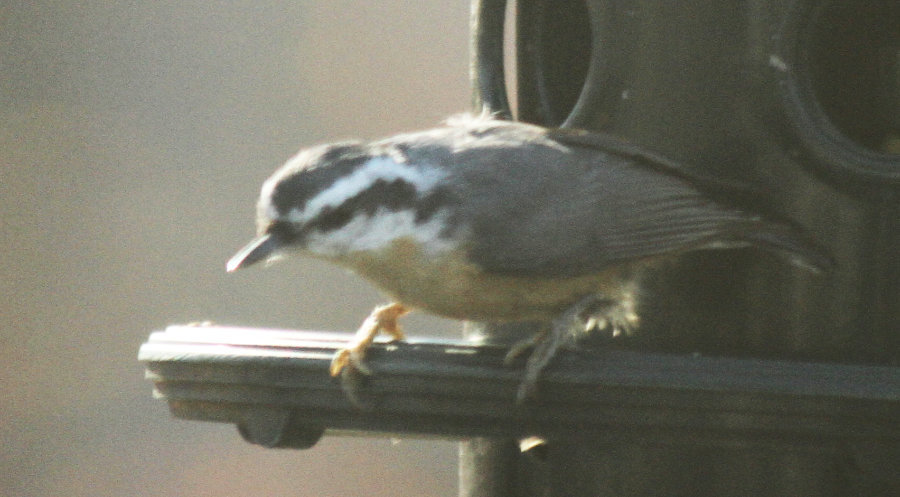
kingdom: Animalia
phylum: Chordata
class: Aves
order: Passeriformes
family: Sittidae
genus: Sitta
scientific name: Sitta canadensis
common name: Red-breasted nuthatch
